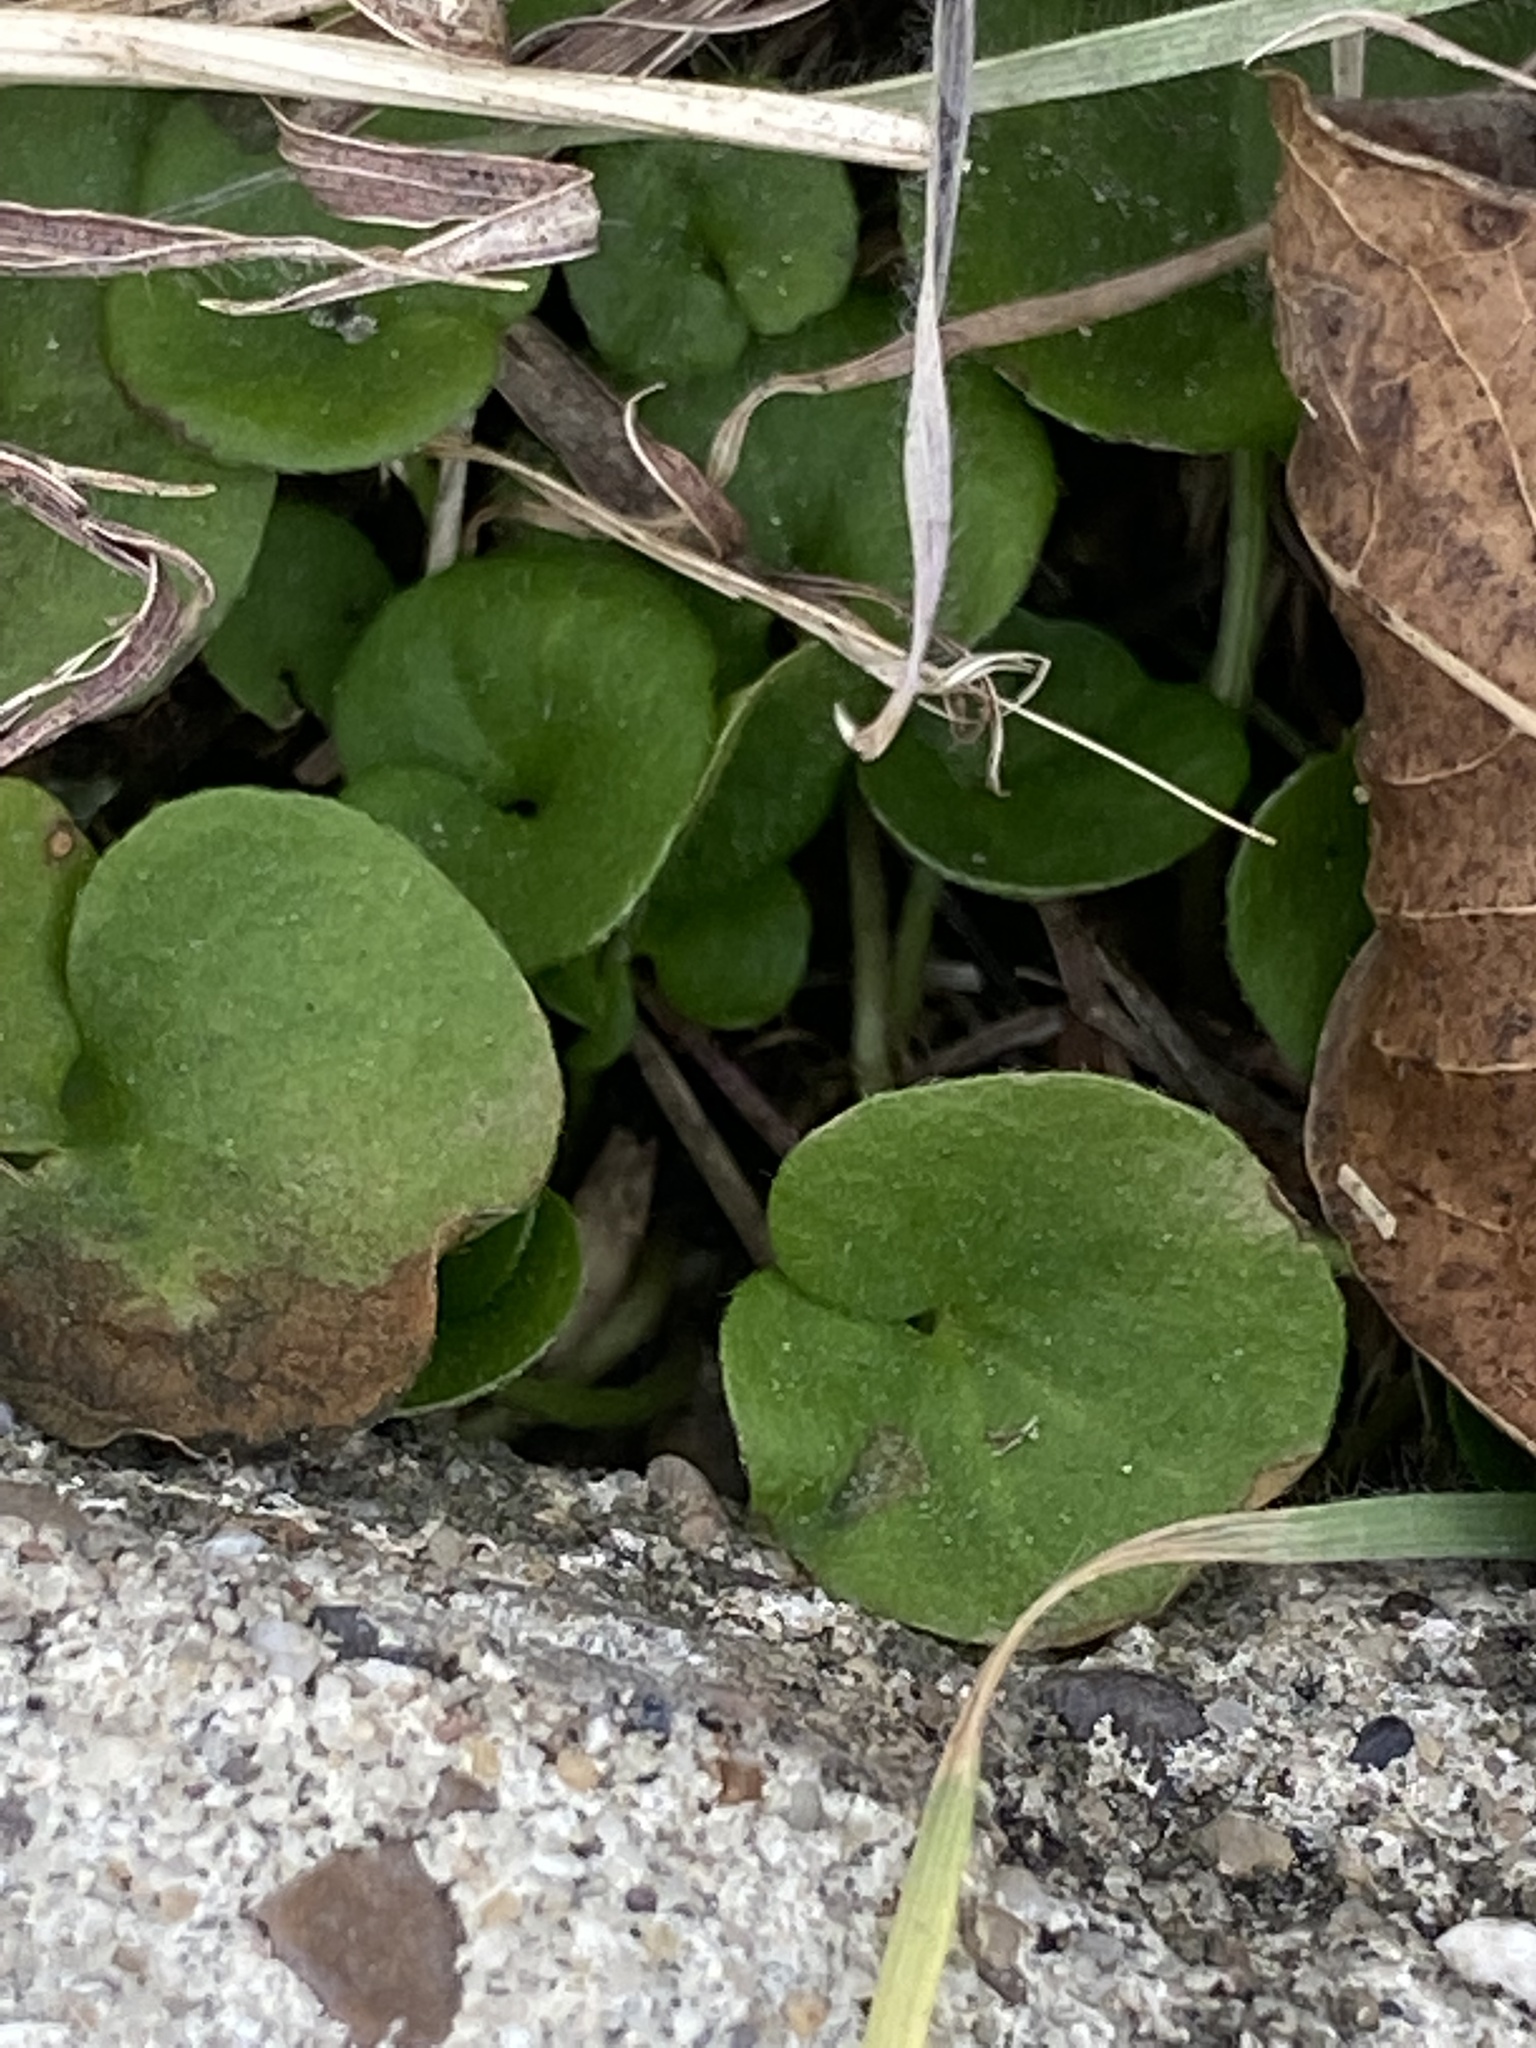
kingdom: Plantae
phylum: Tracheophyta
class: Magnoliopsida
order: Solanales
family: Convolvulaceae
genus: Dichondra
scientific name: Dichondra carolinensis
